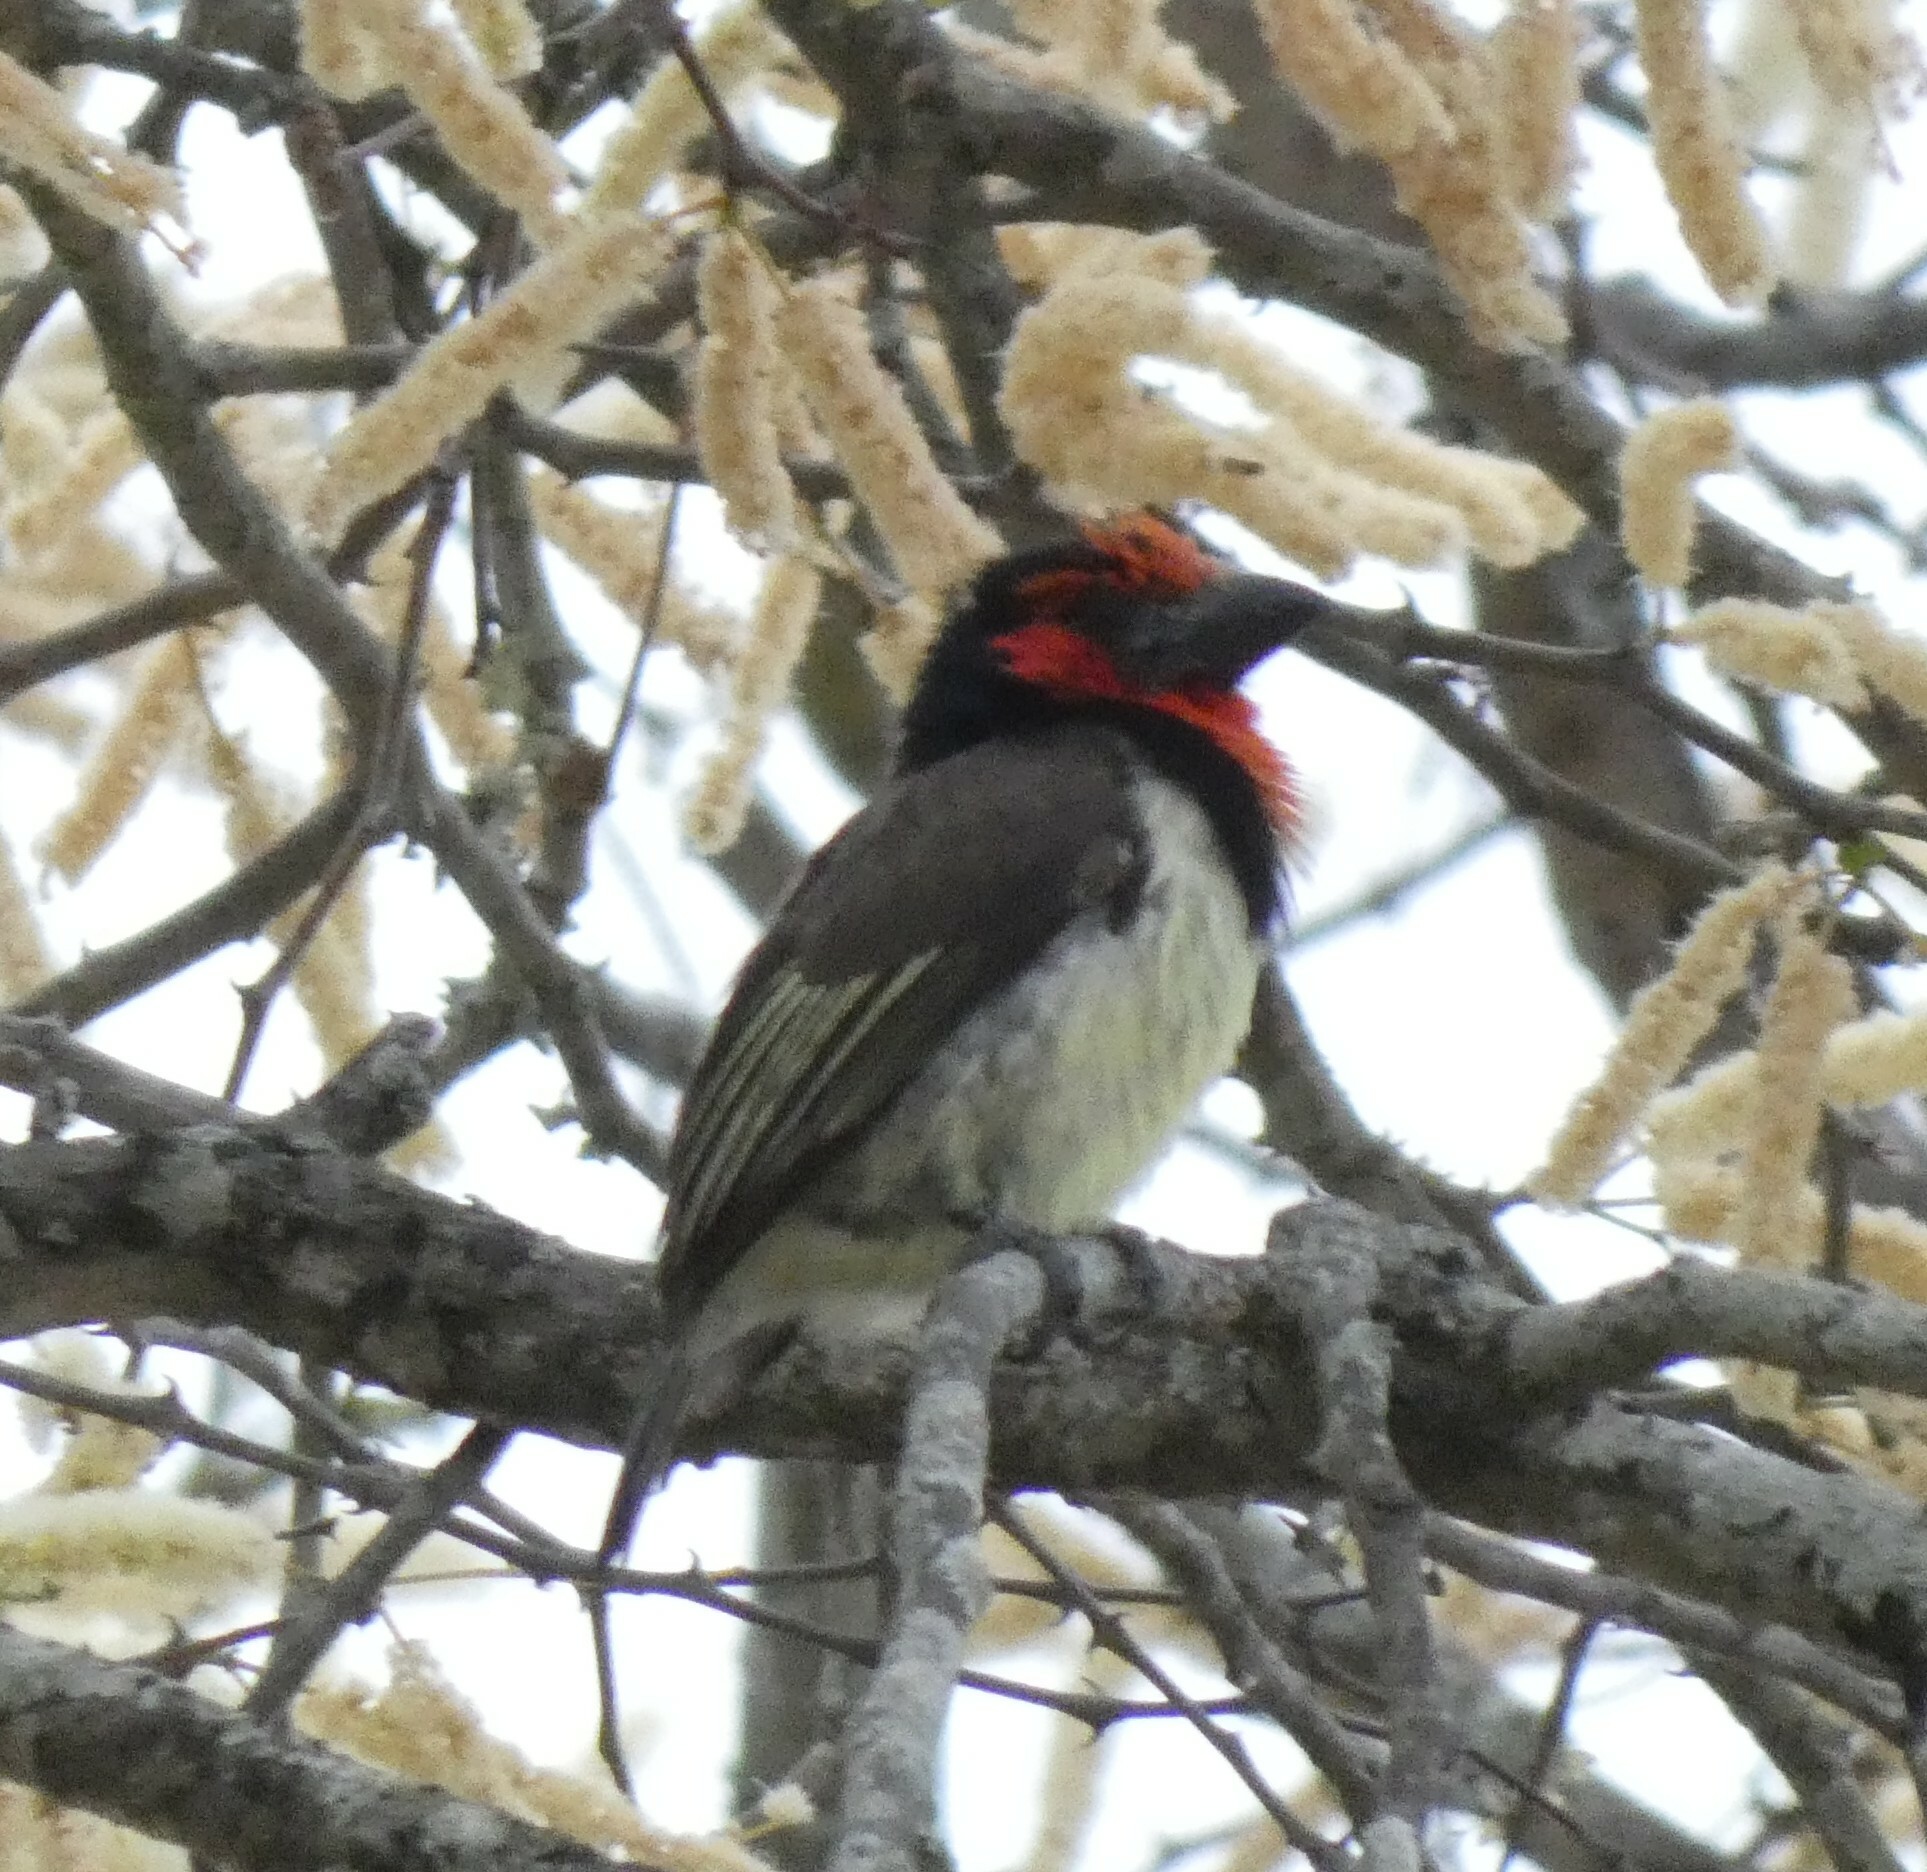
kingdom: Animalia
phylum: Chordata
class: Aves
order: Piciformes
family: Lybiidae
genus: Lybius
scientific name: Lybius torquatus
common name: Black-collared barbet
